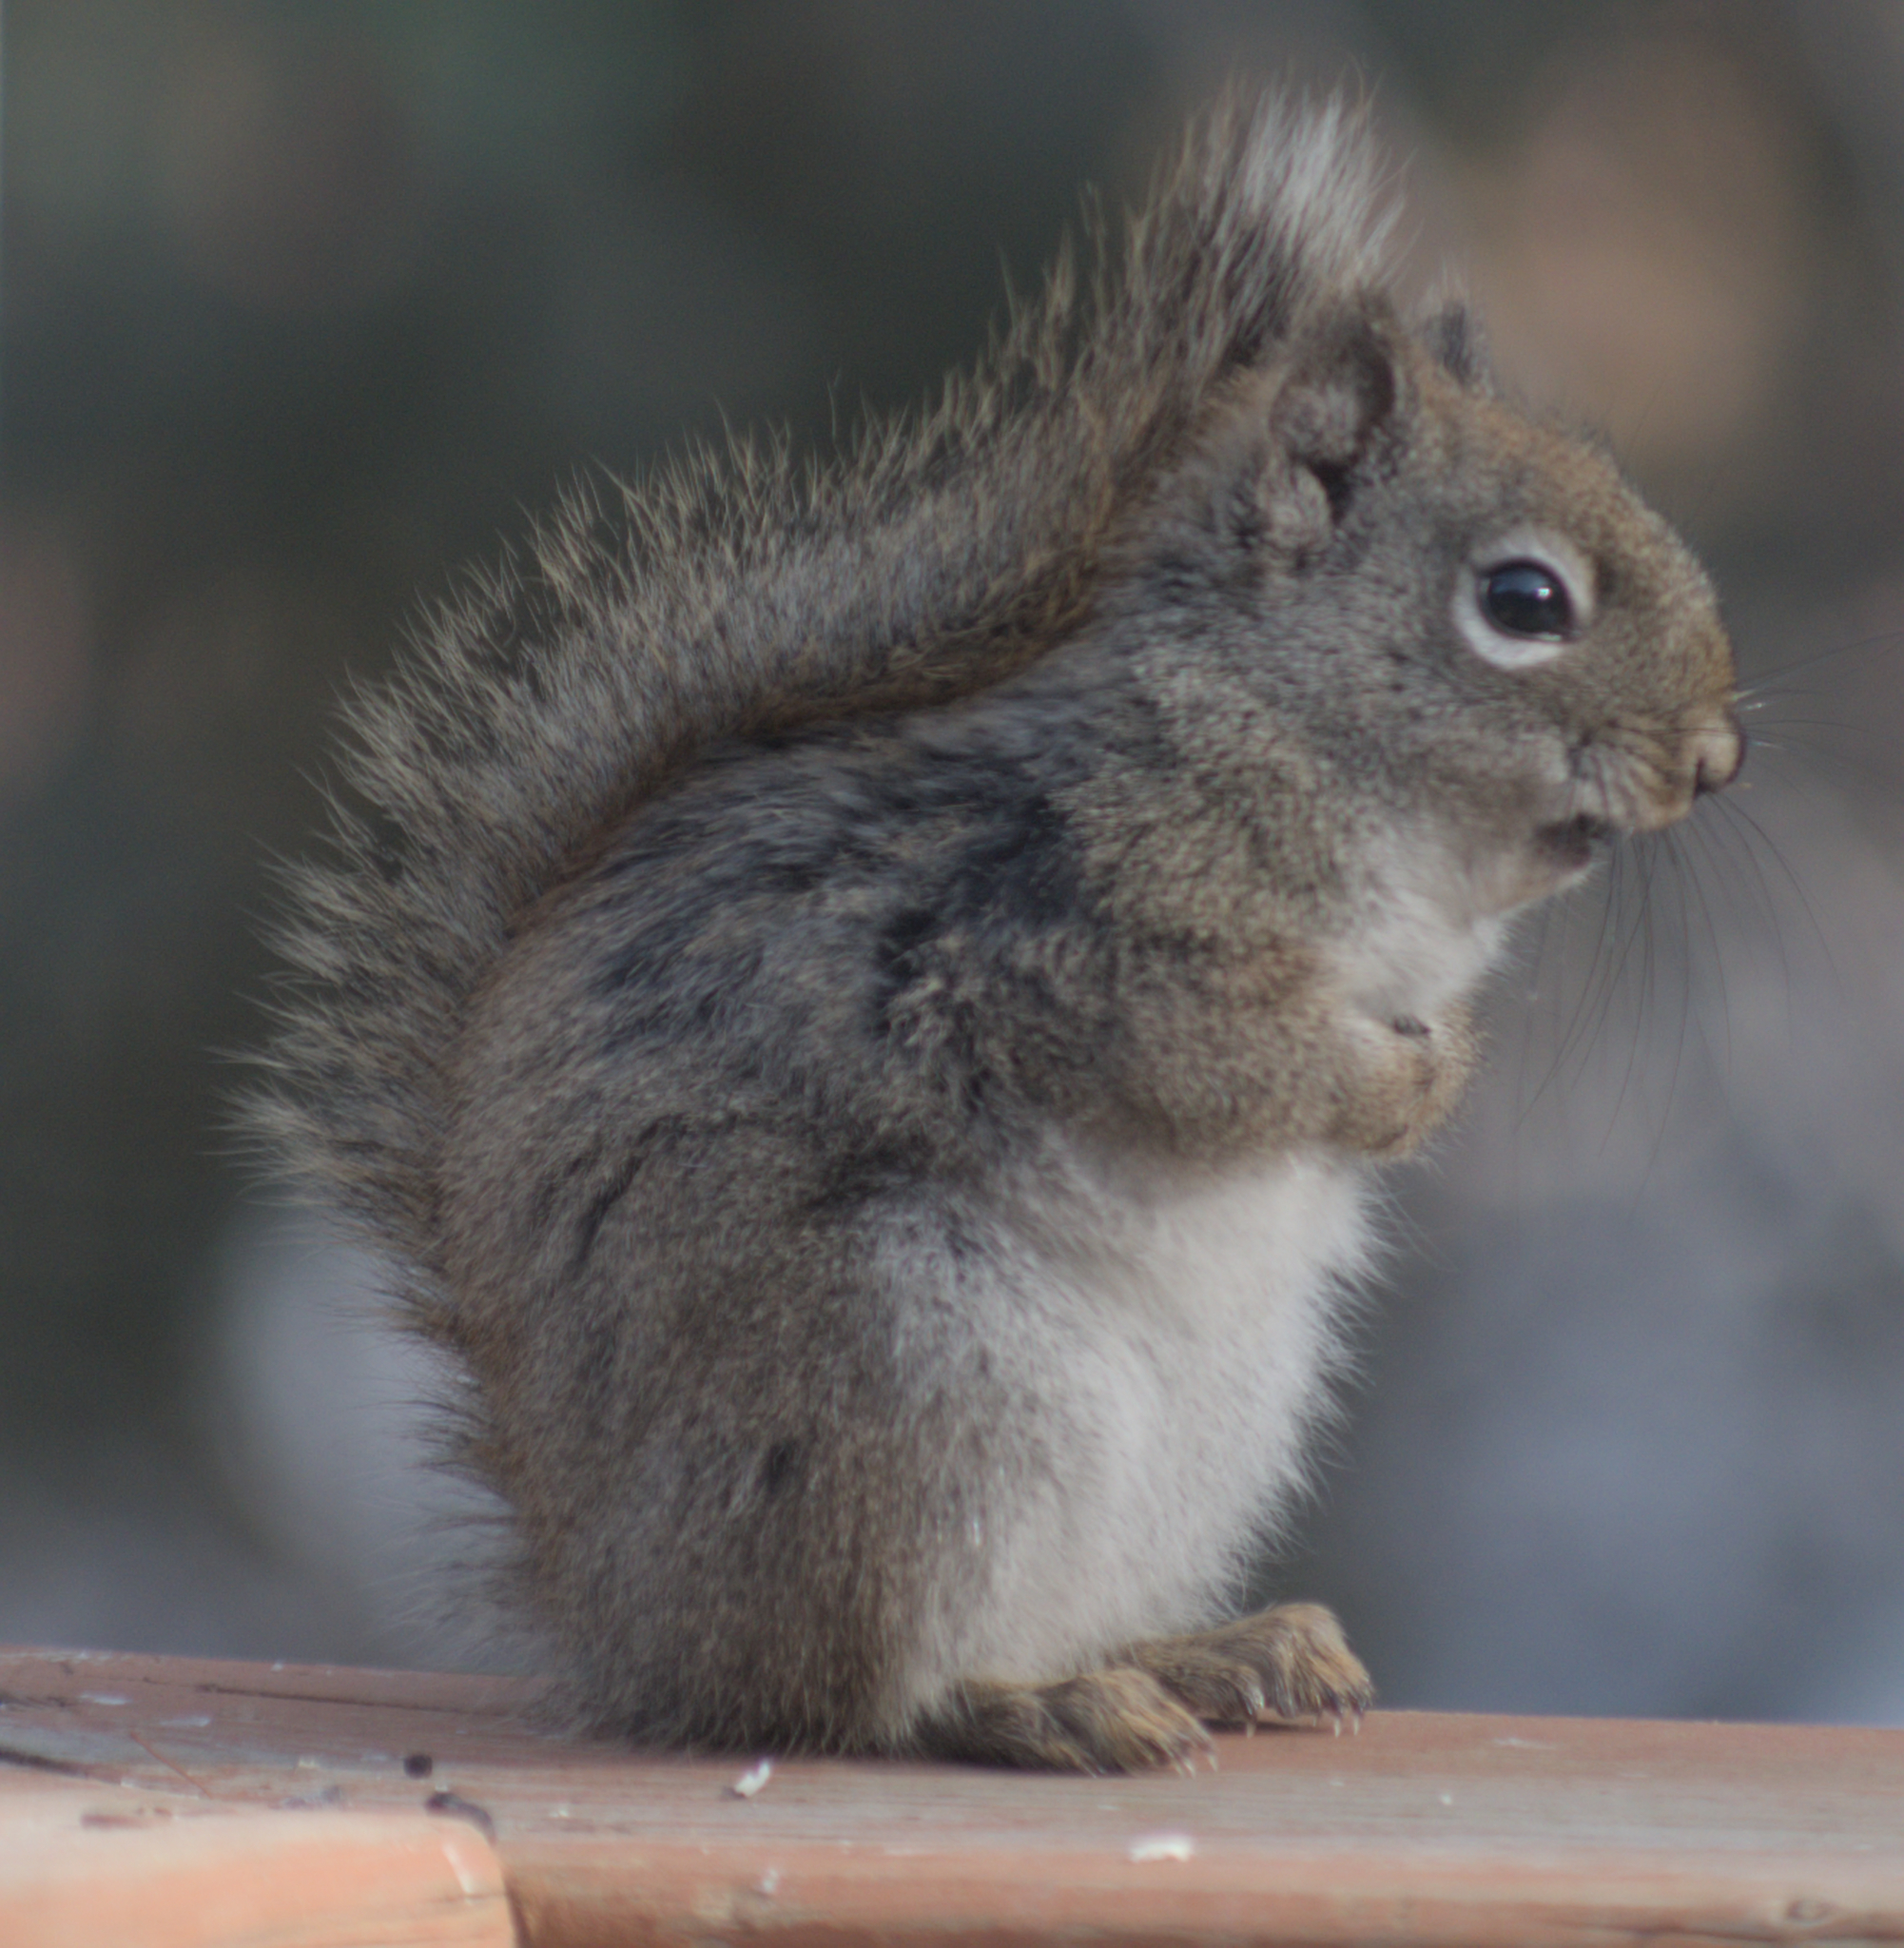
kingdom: Animalia
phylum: Chordata
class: Mammalia
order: Rodentia
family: Sciuridae
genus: Tamiasciurus
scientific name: Tamiasciurus hudsonicus
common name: Red squirrel
